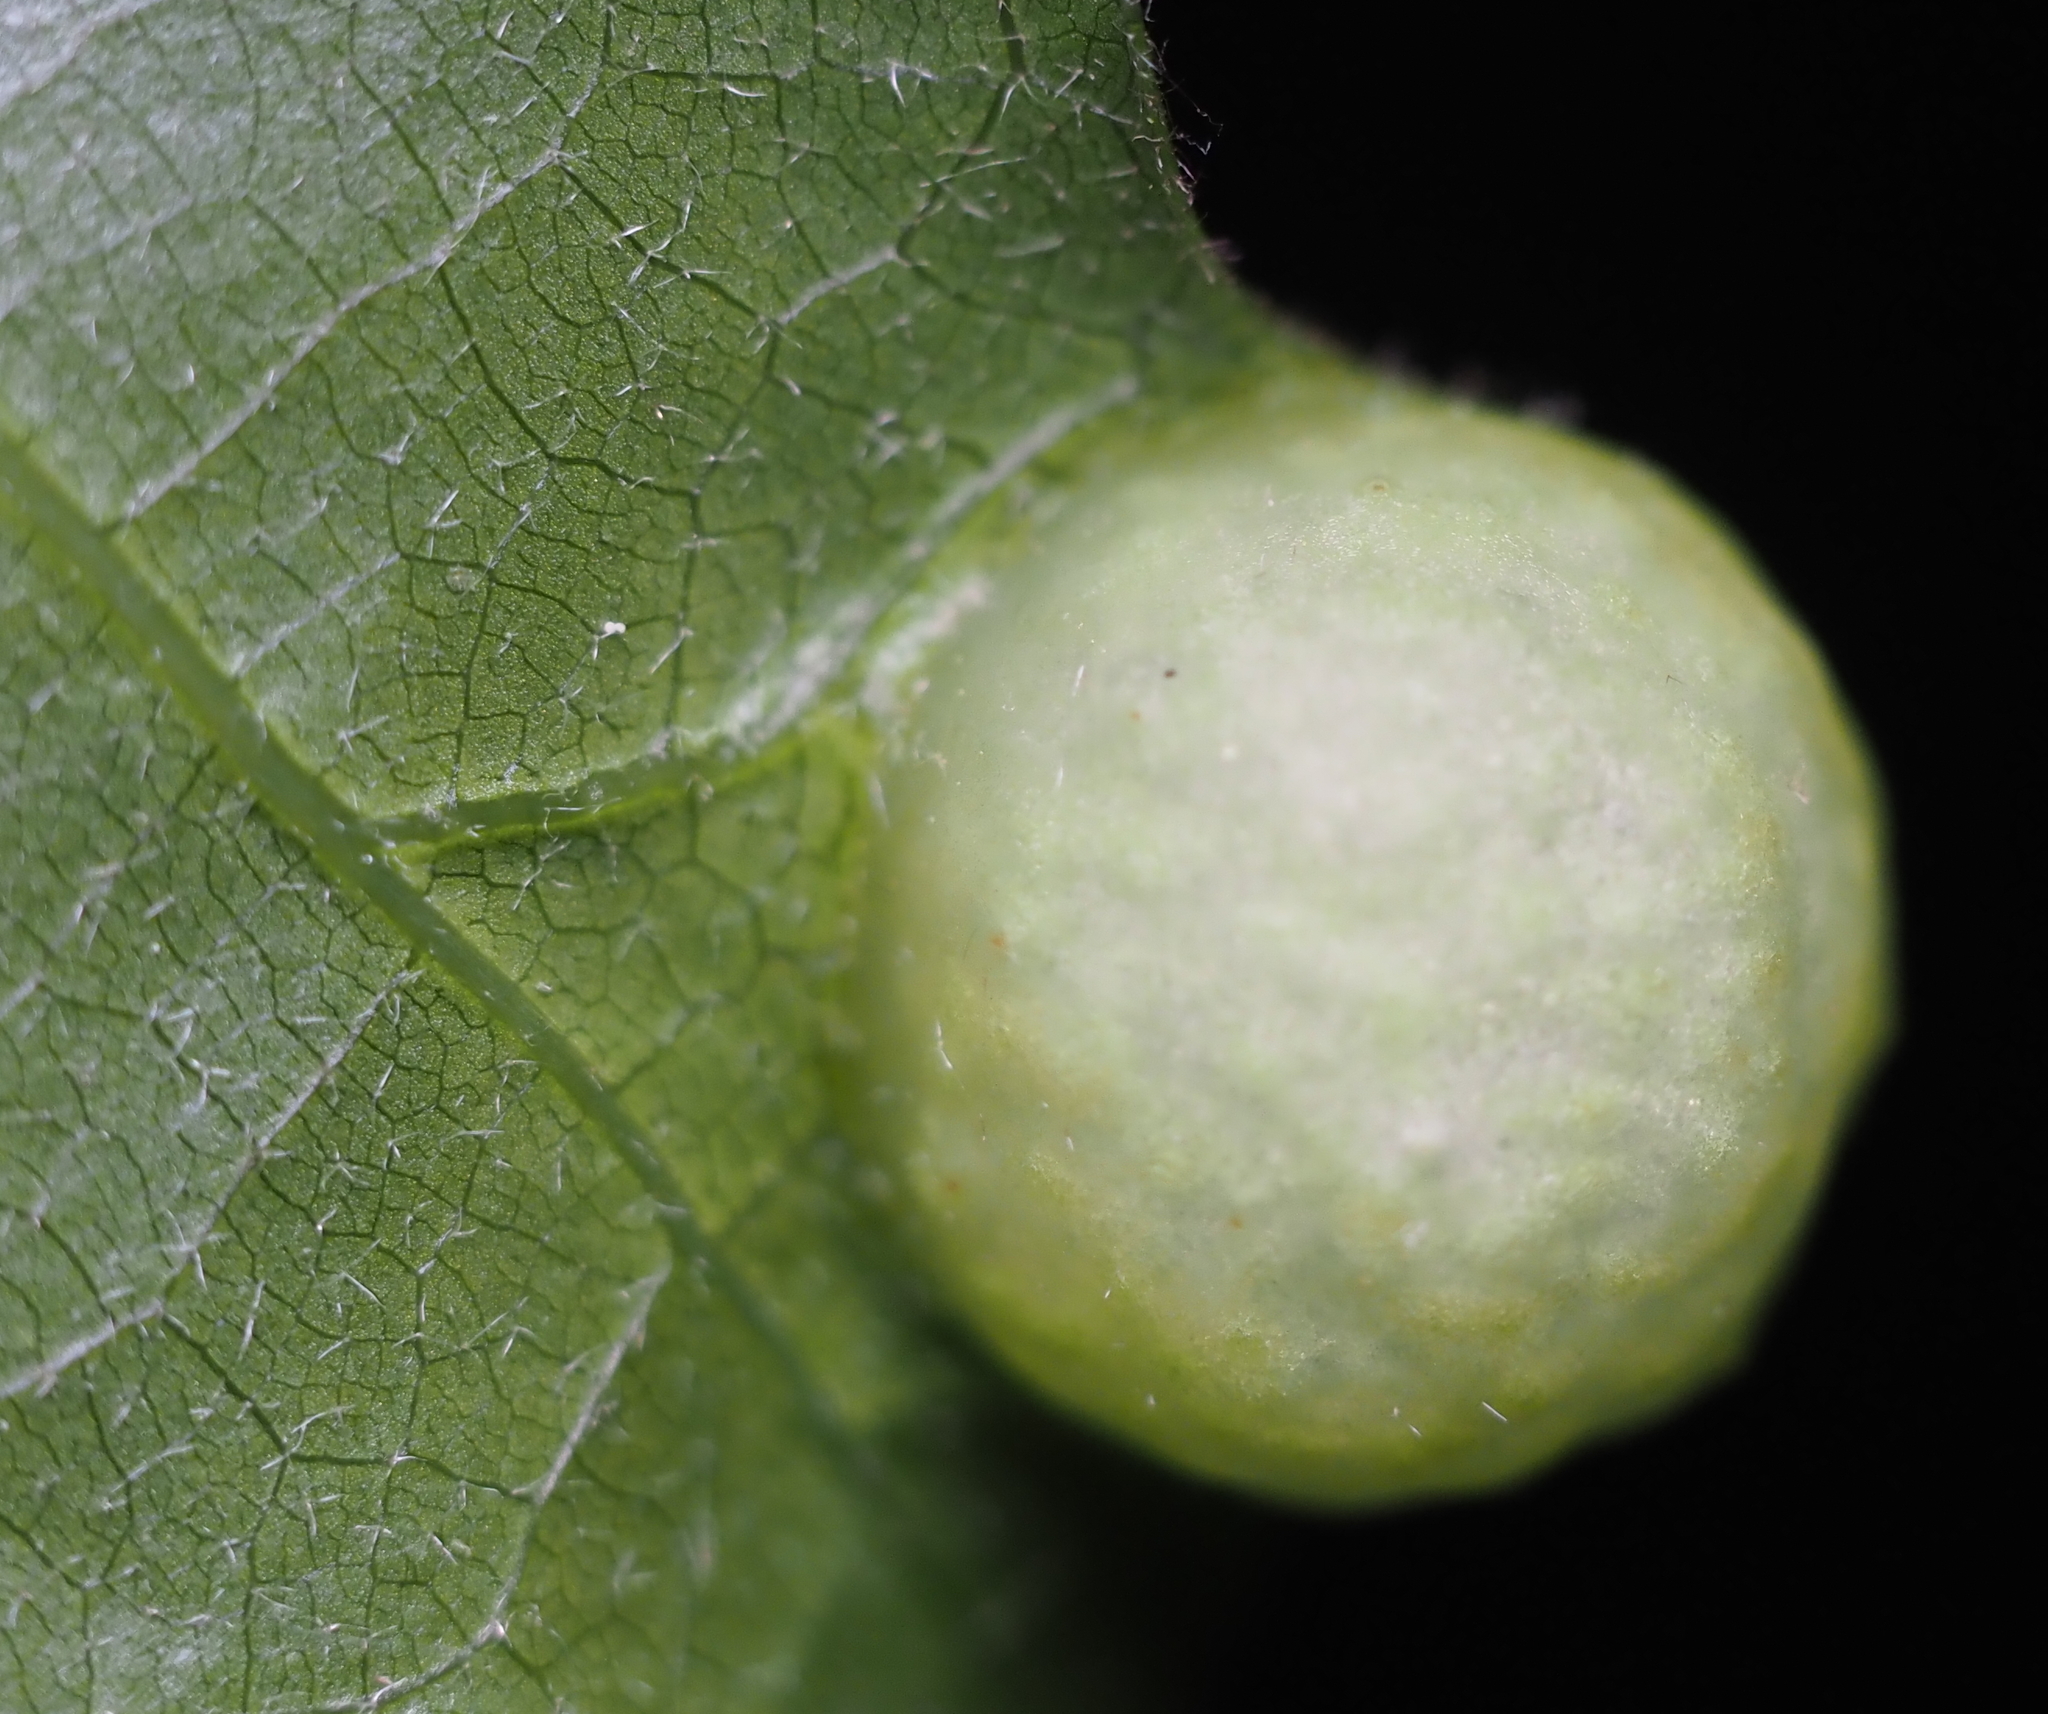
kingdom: Animalia
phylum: Arthropoda
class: Insecta
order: Hymenoptera
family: Cynipidae
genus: Amphibolips
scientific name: Amphibolips
